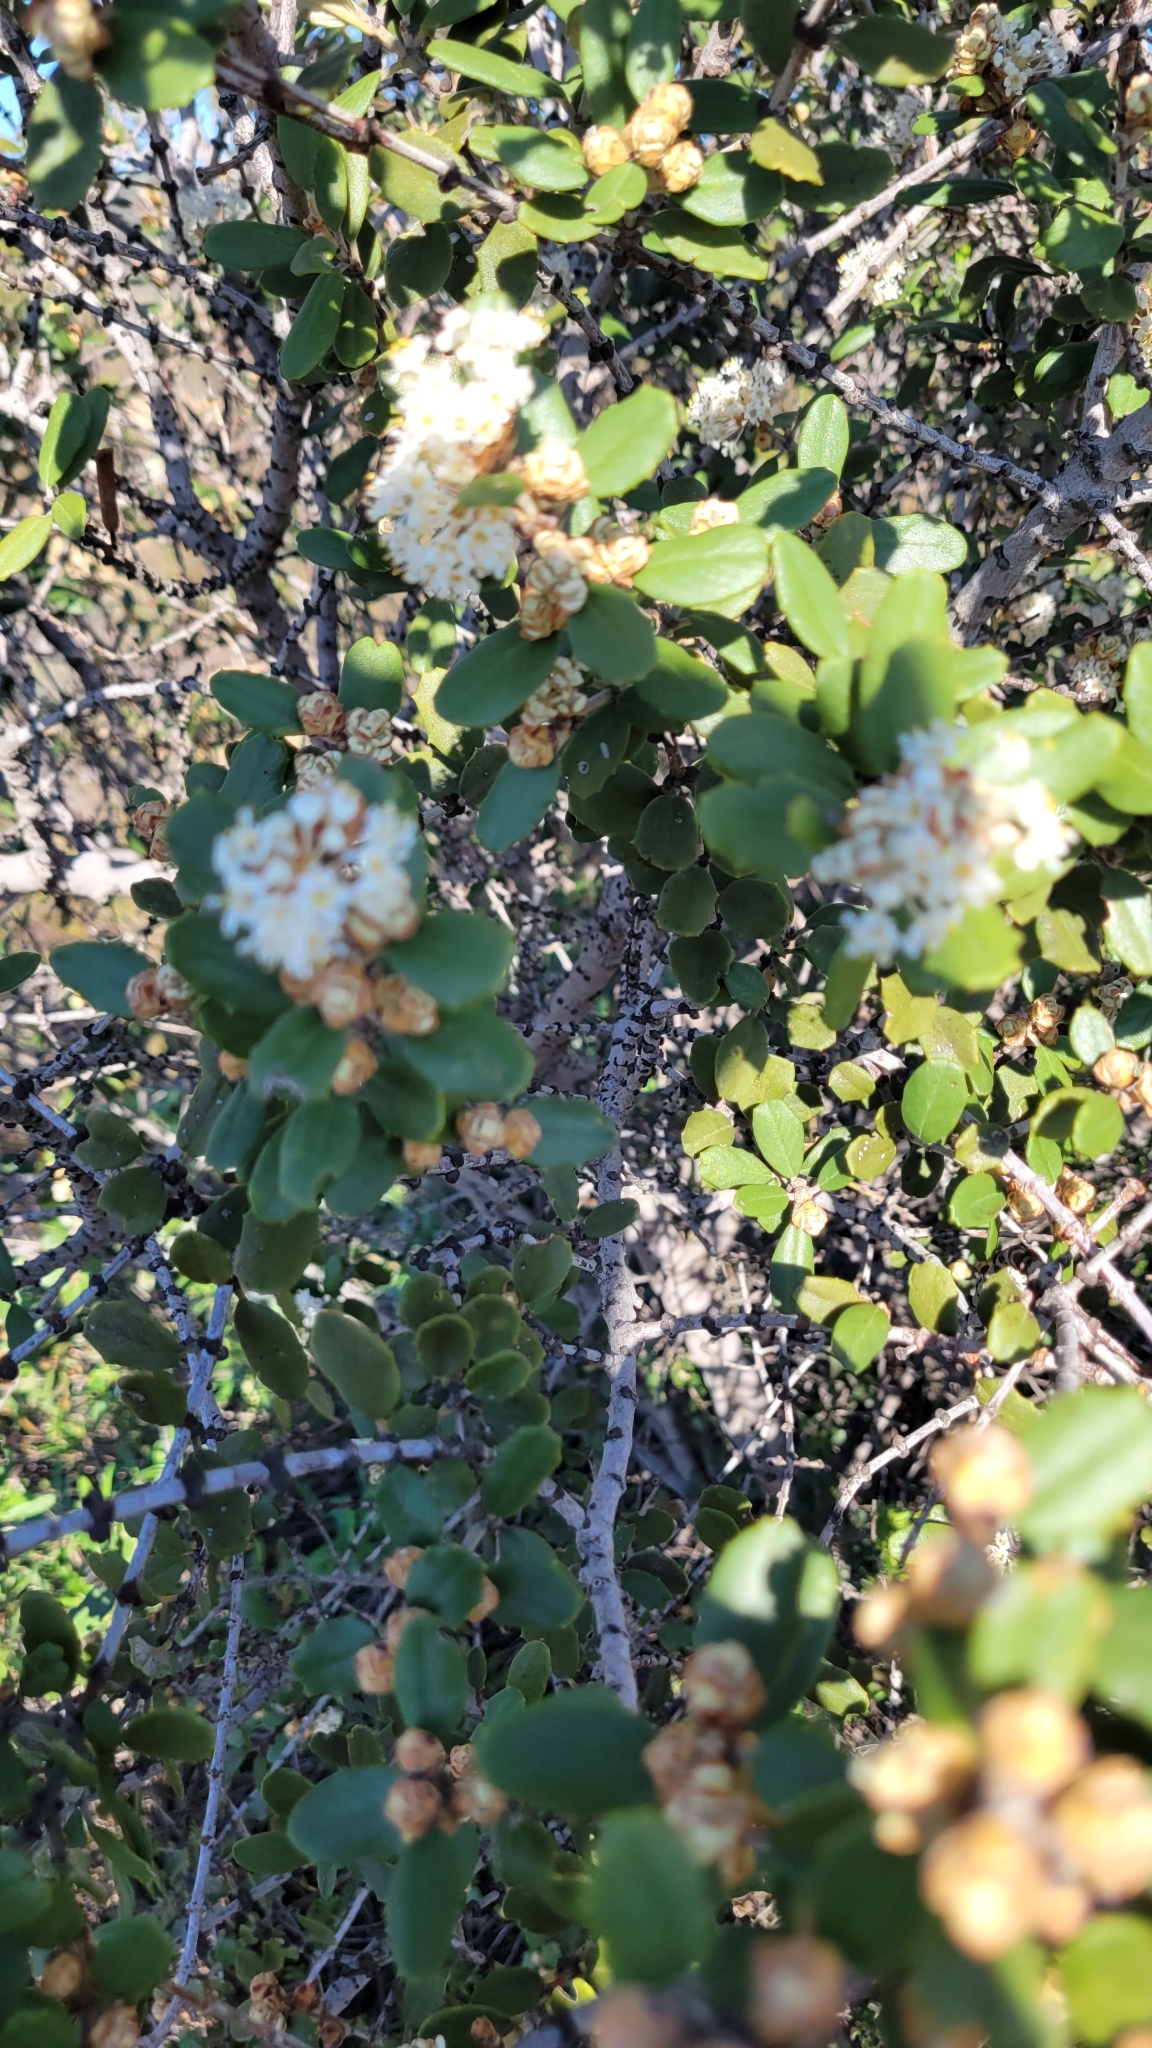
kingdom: Plantae
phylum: Tracheophyta
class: Magnoliopsida
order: Rosales
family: Rhamnaceae
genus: Ceanothus
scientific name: Ceanothus crassifolius
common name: Hoaryleaf ceanothus
